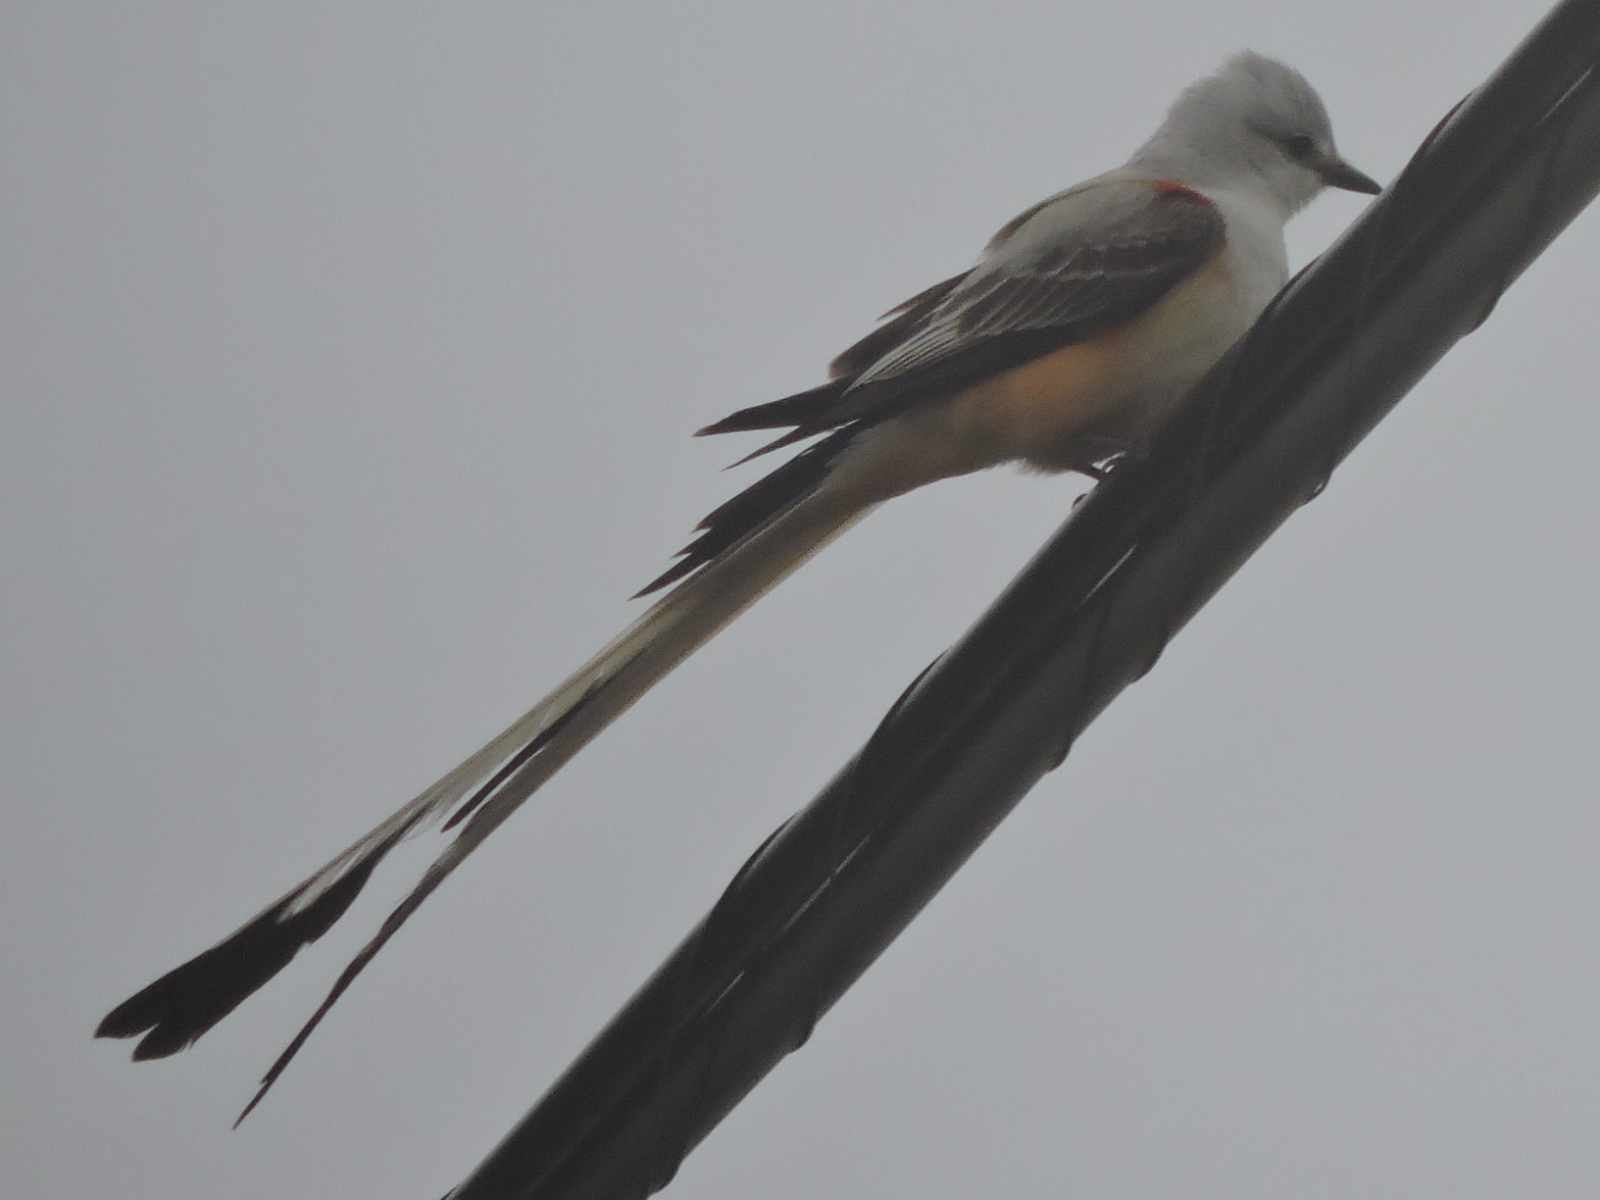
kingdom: Animalia
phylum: Chordata
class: Aves
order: Passeriformes
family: Tyrannidae
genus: Tyrannus
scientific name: Tyrannus forficatus
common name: Scissor-tailed flycatcher
